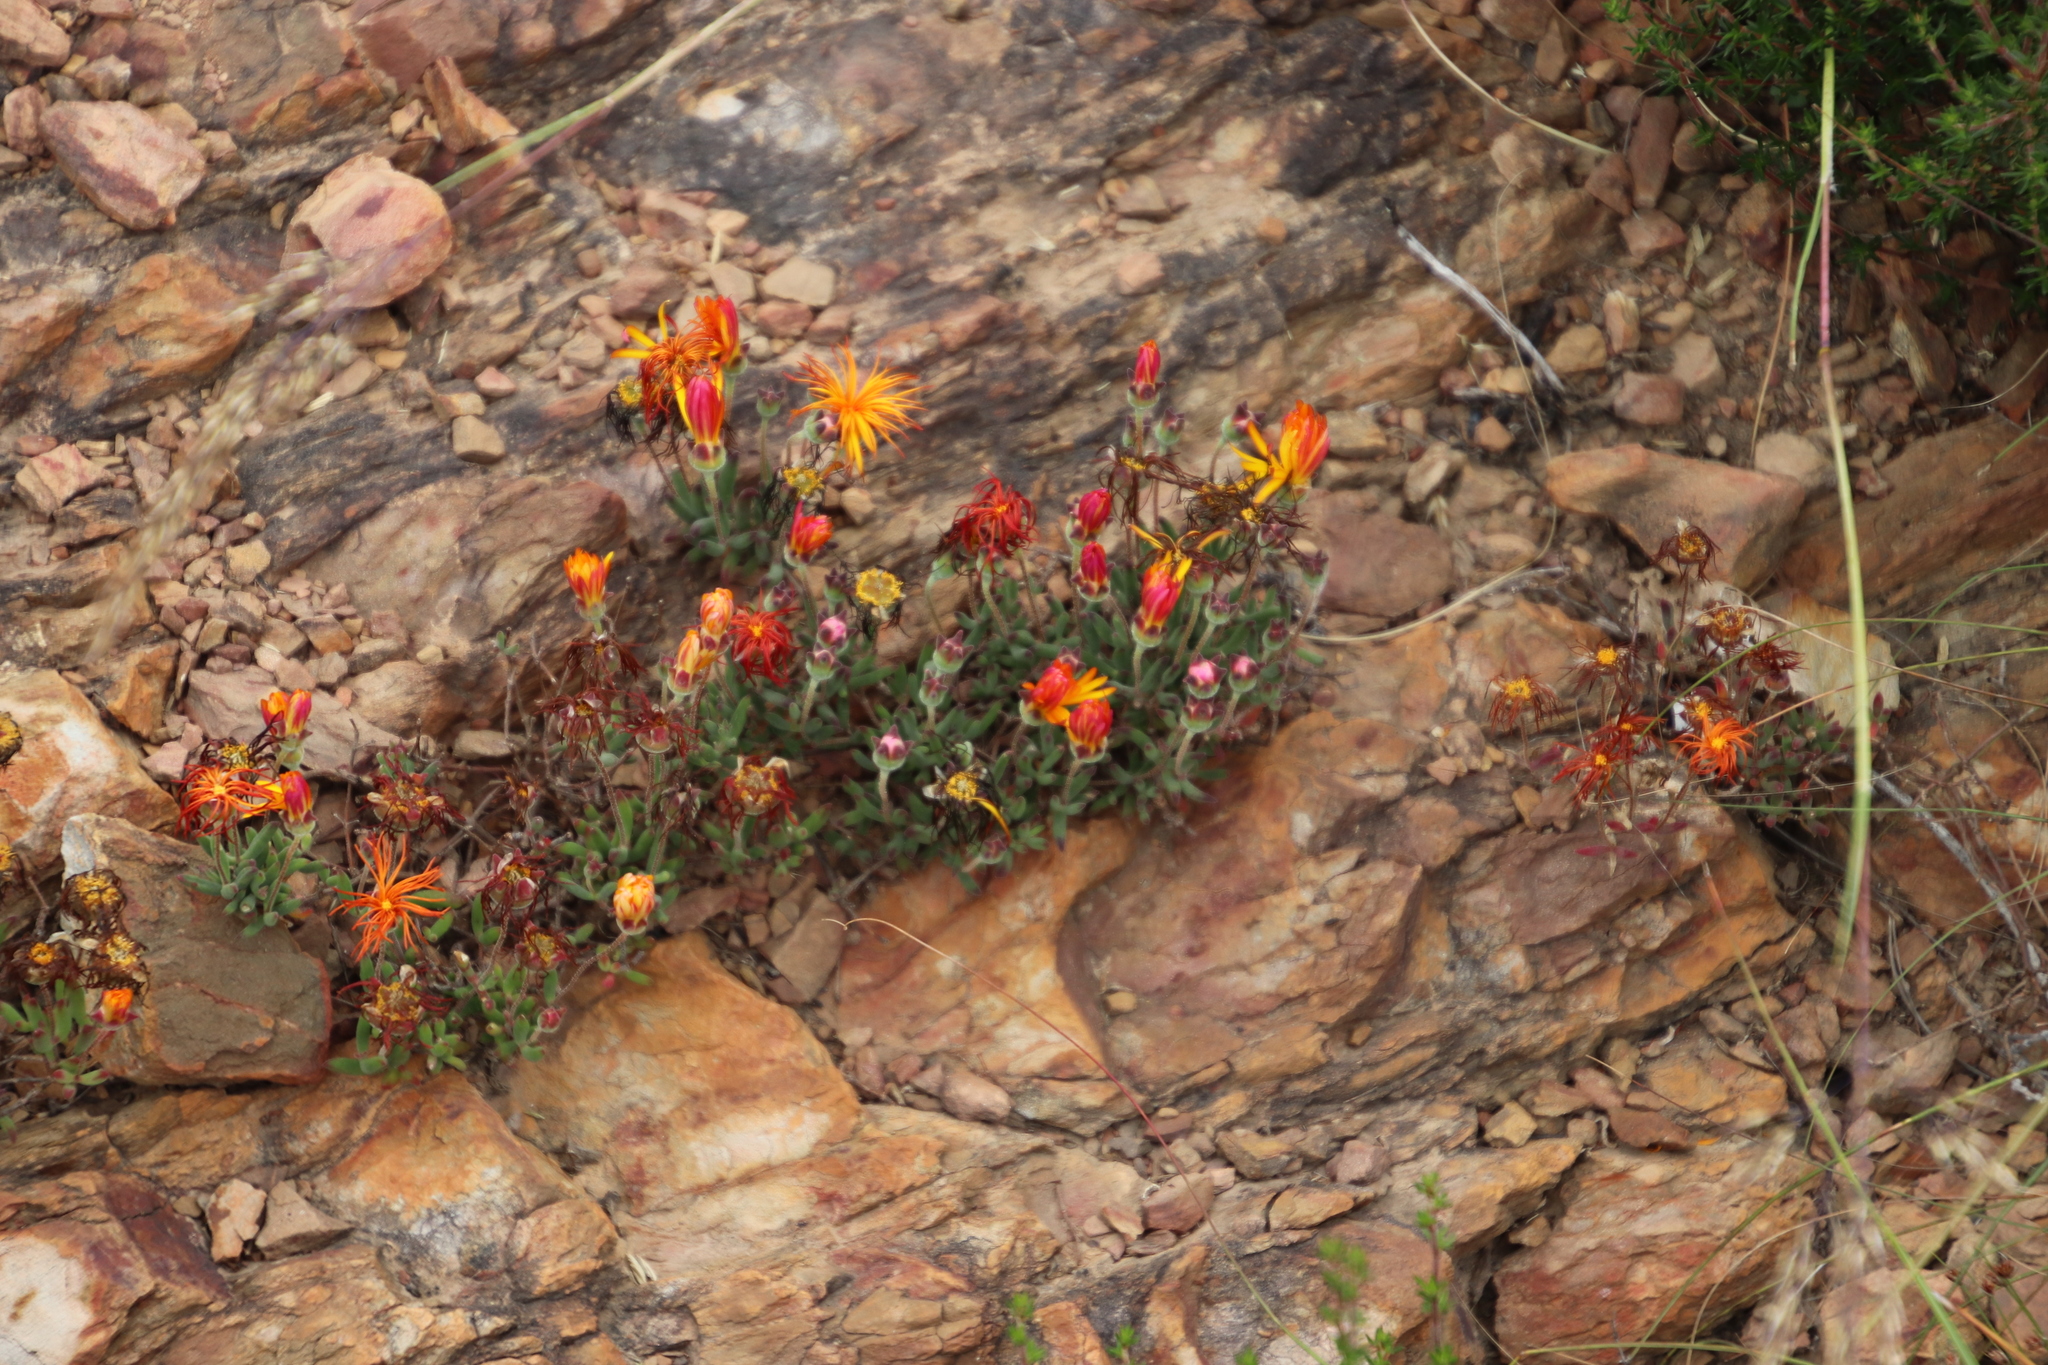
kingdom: Plantae
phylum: Tracheophyta
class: Magnoliopsida
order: Caryophyllales
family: Aizoaceae
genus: Drosanthemum
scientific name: Drosanthemum flavum
